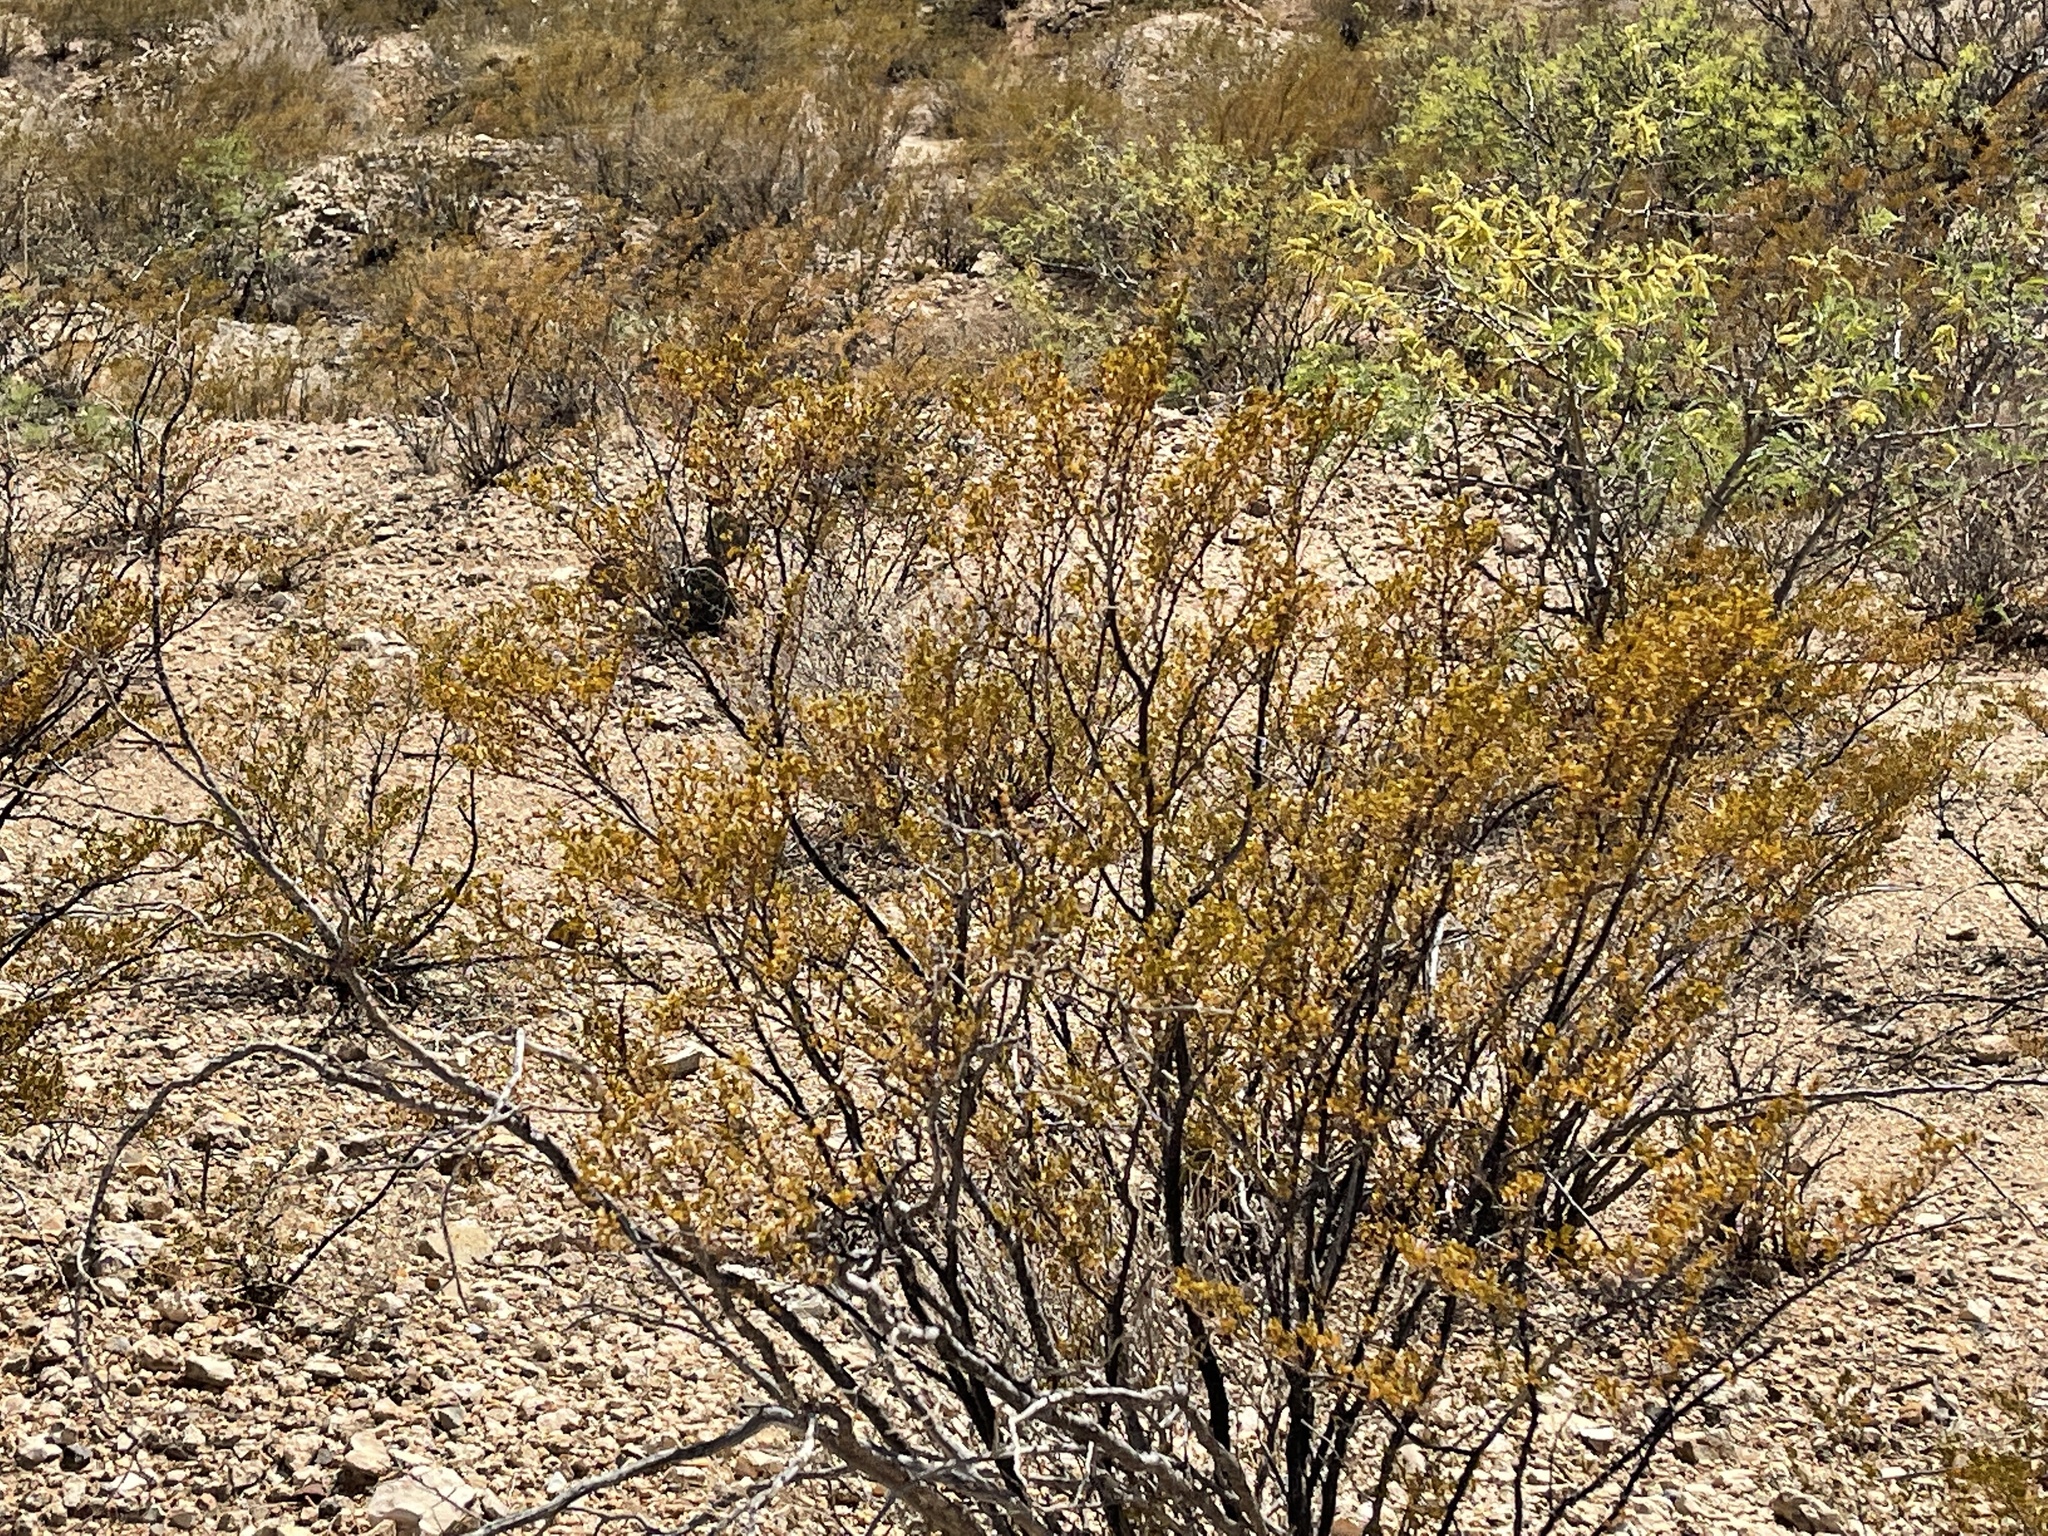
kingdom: Plantae
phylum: Tracheophyta
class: Magnoliopsida
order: Zygophyllales
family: Zygophyllaceae
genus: Larrea
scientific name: Larrea tridentata
